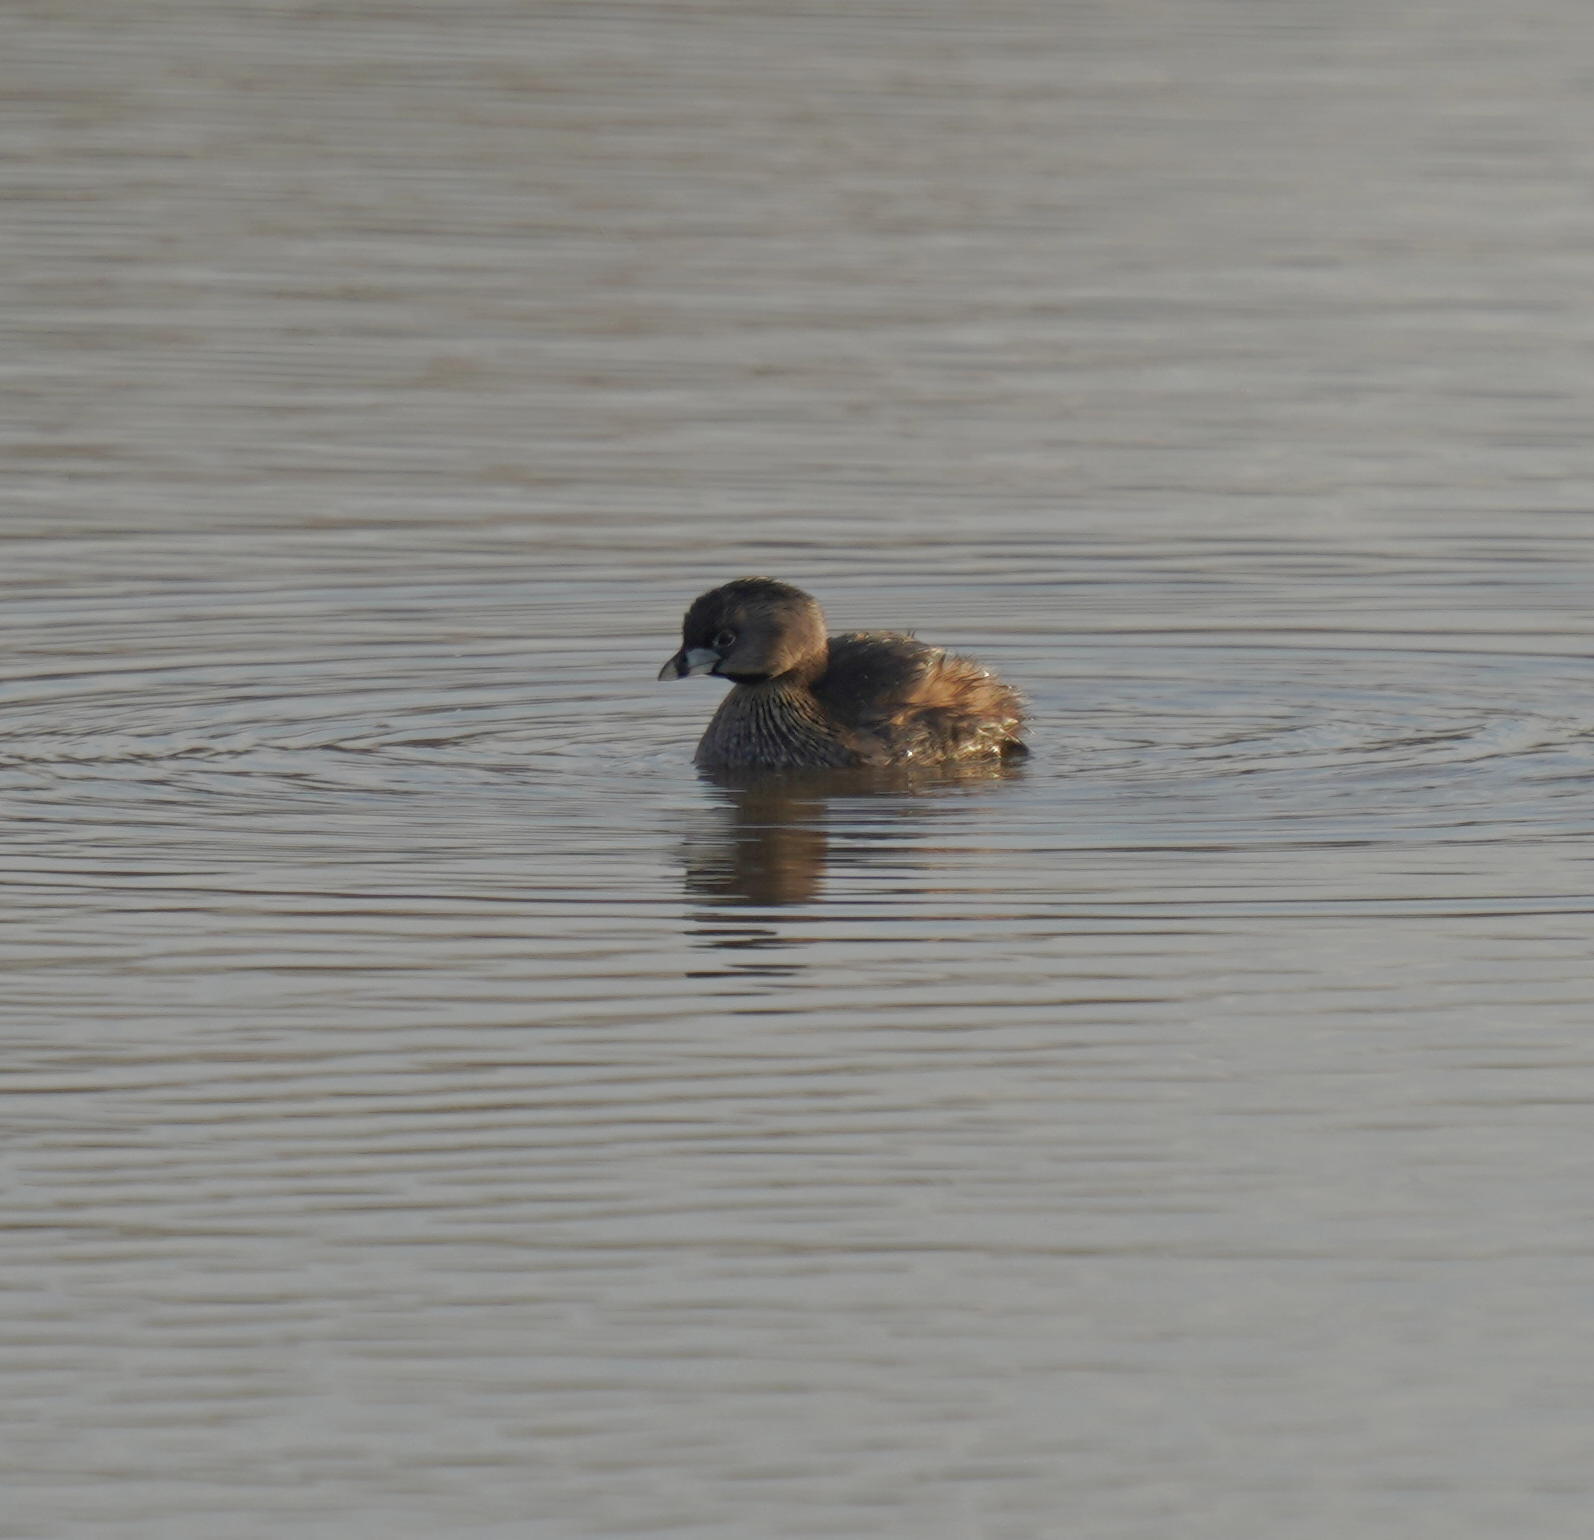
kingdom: Animalia
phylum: Chordata
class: Aves
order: Podicipediformes
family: Podicipedidae
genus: Podilymbus
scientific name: Podilymbus podiceps
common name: Pied-billed grebe
